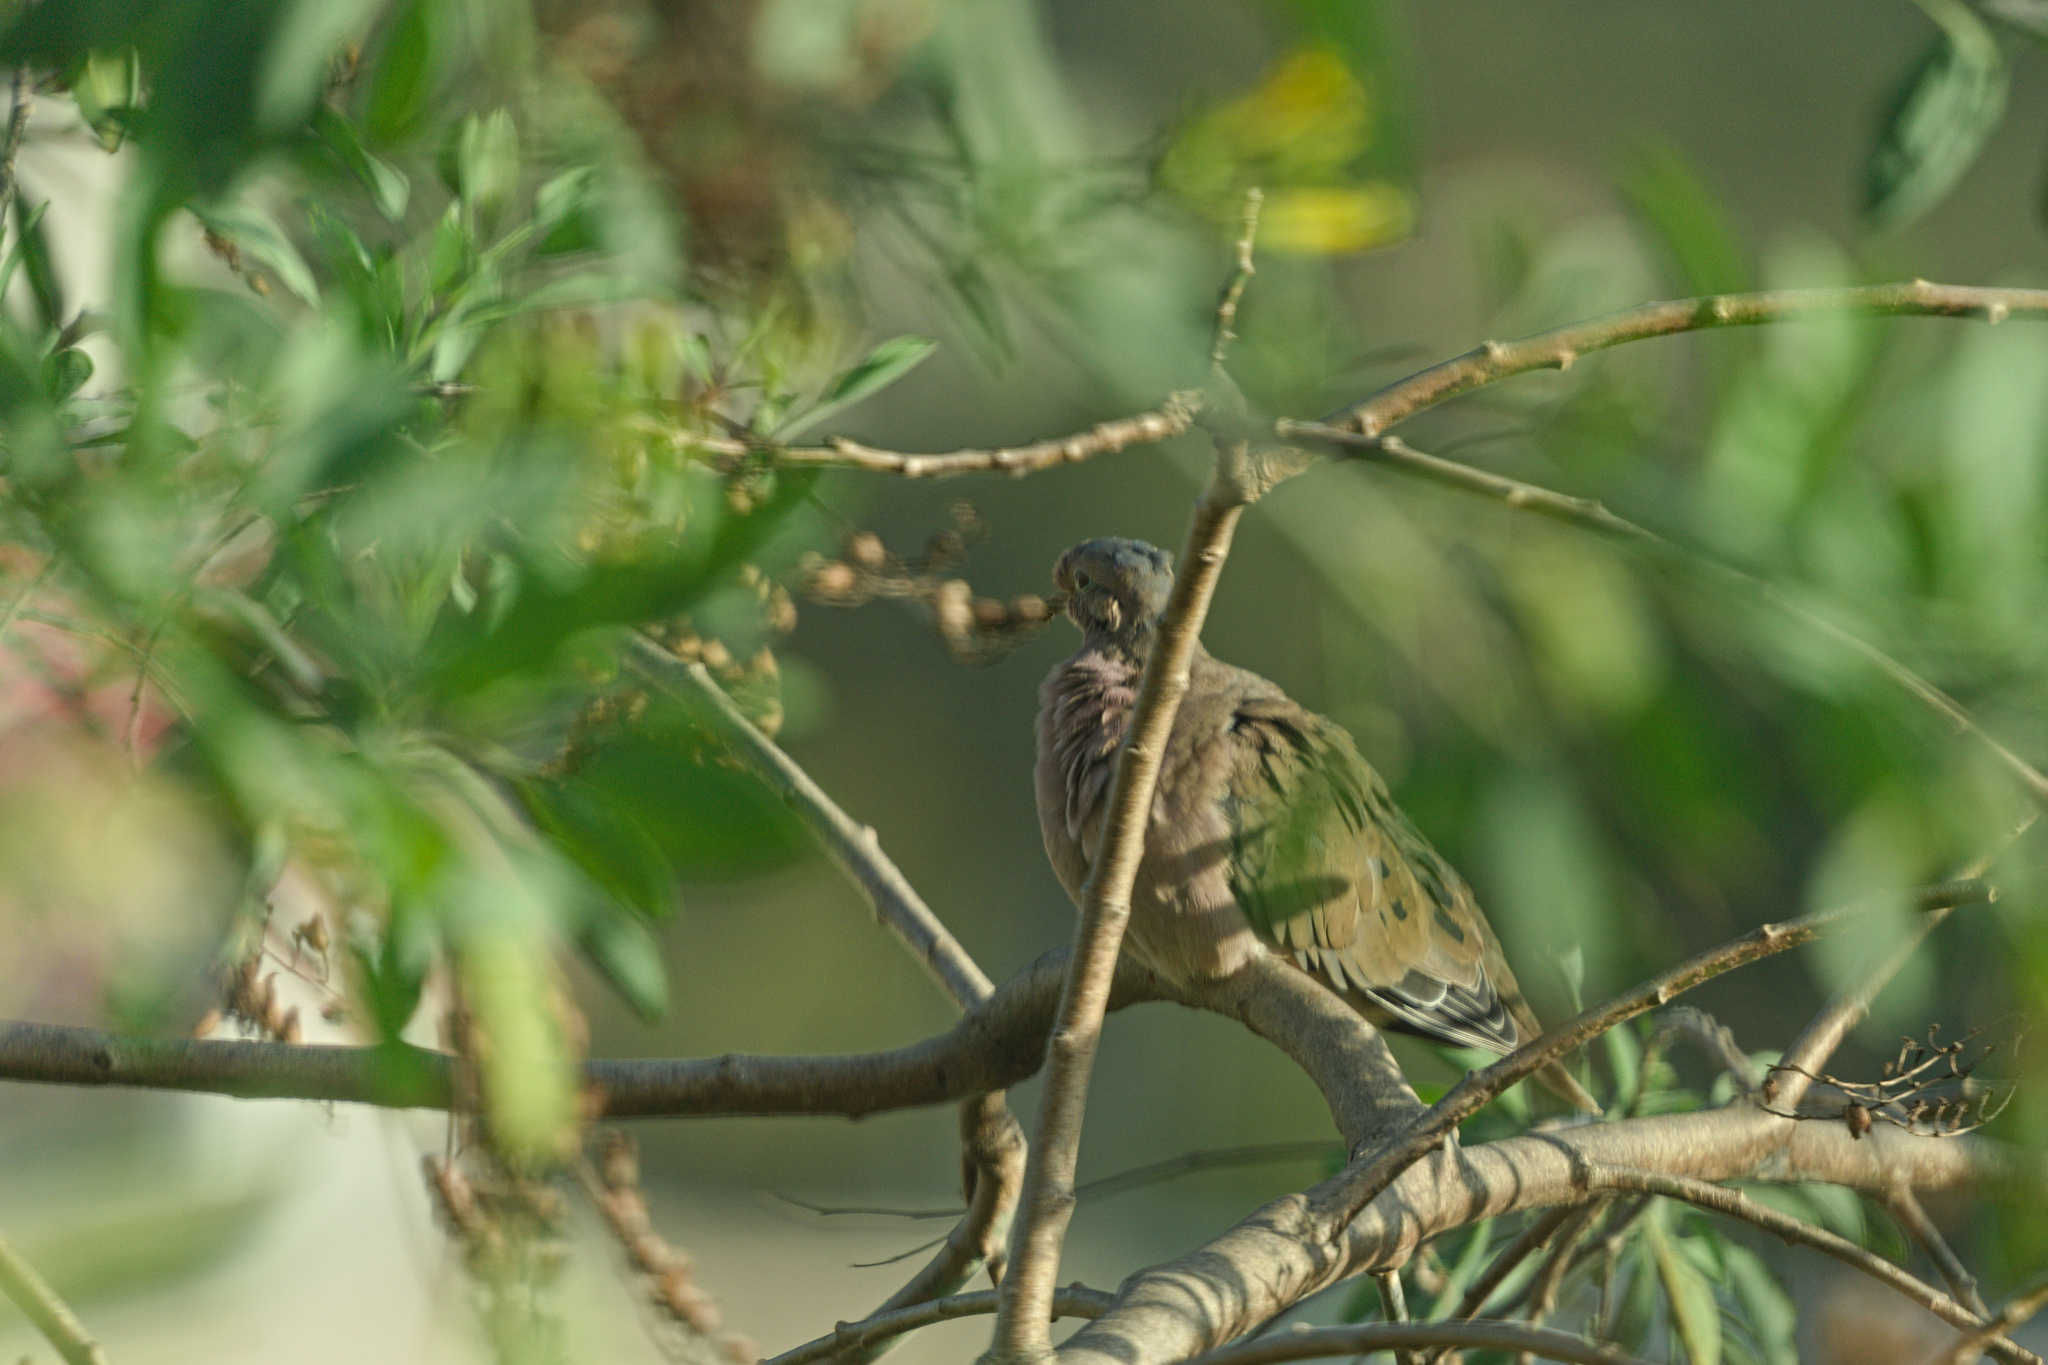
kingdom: Animalia
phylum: Chordata
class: Aves
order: Columbiformes
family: Columbidae
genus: Zenaida
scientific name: Zenaida auriculata
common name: Eared dove
